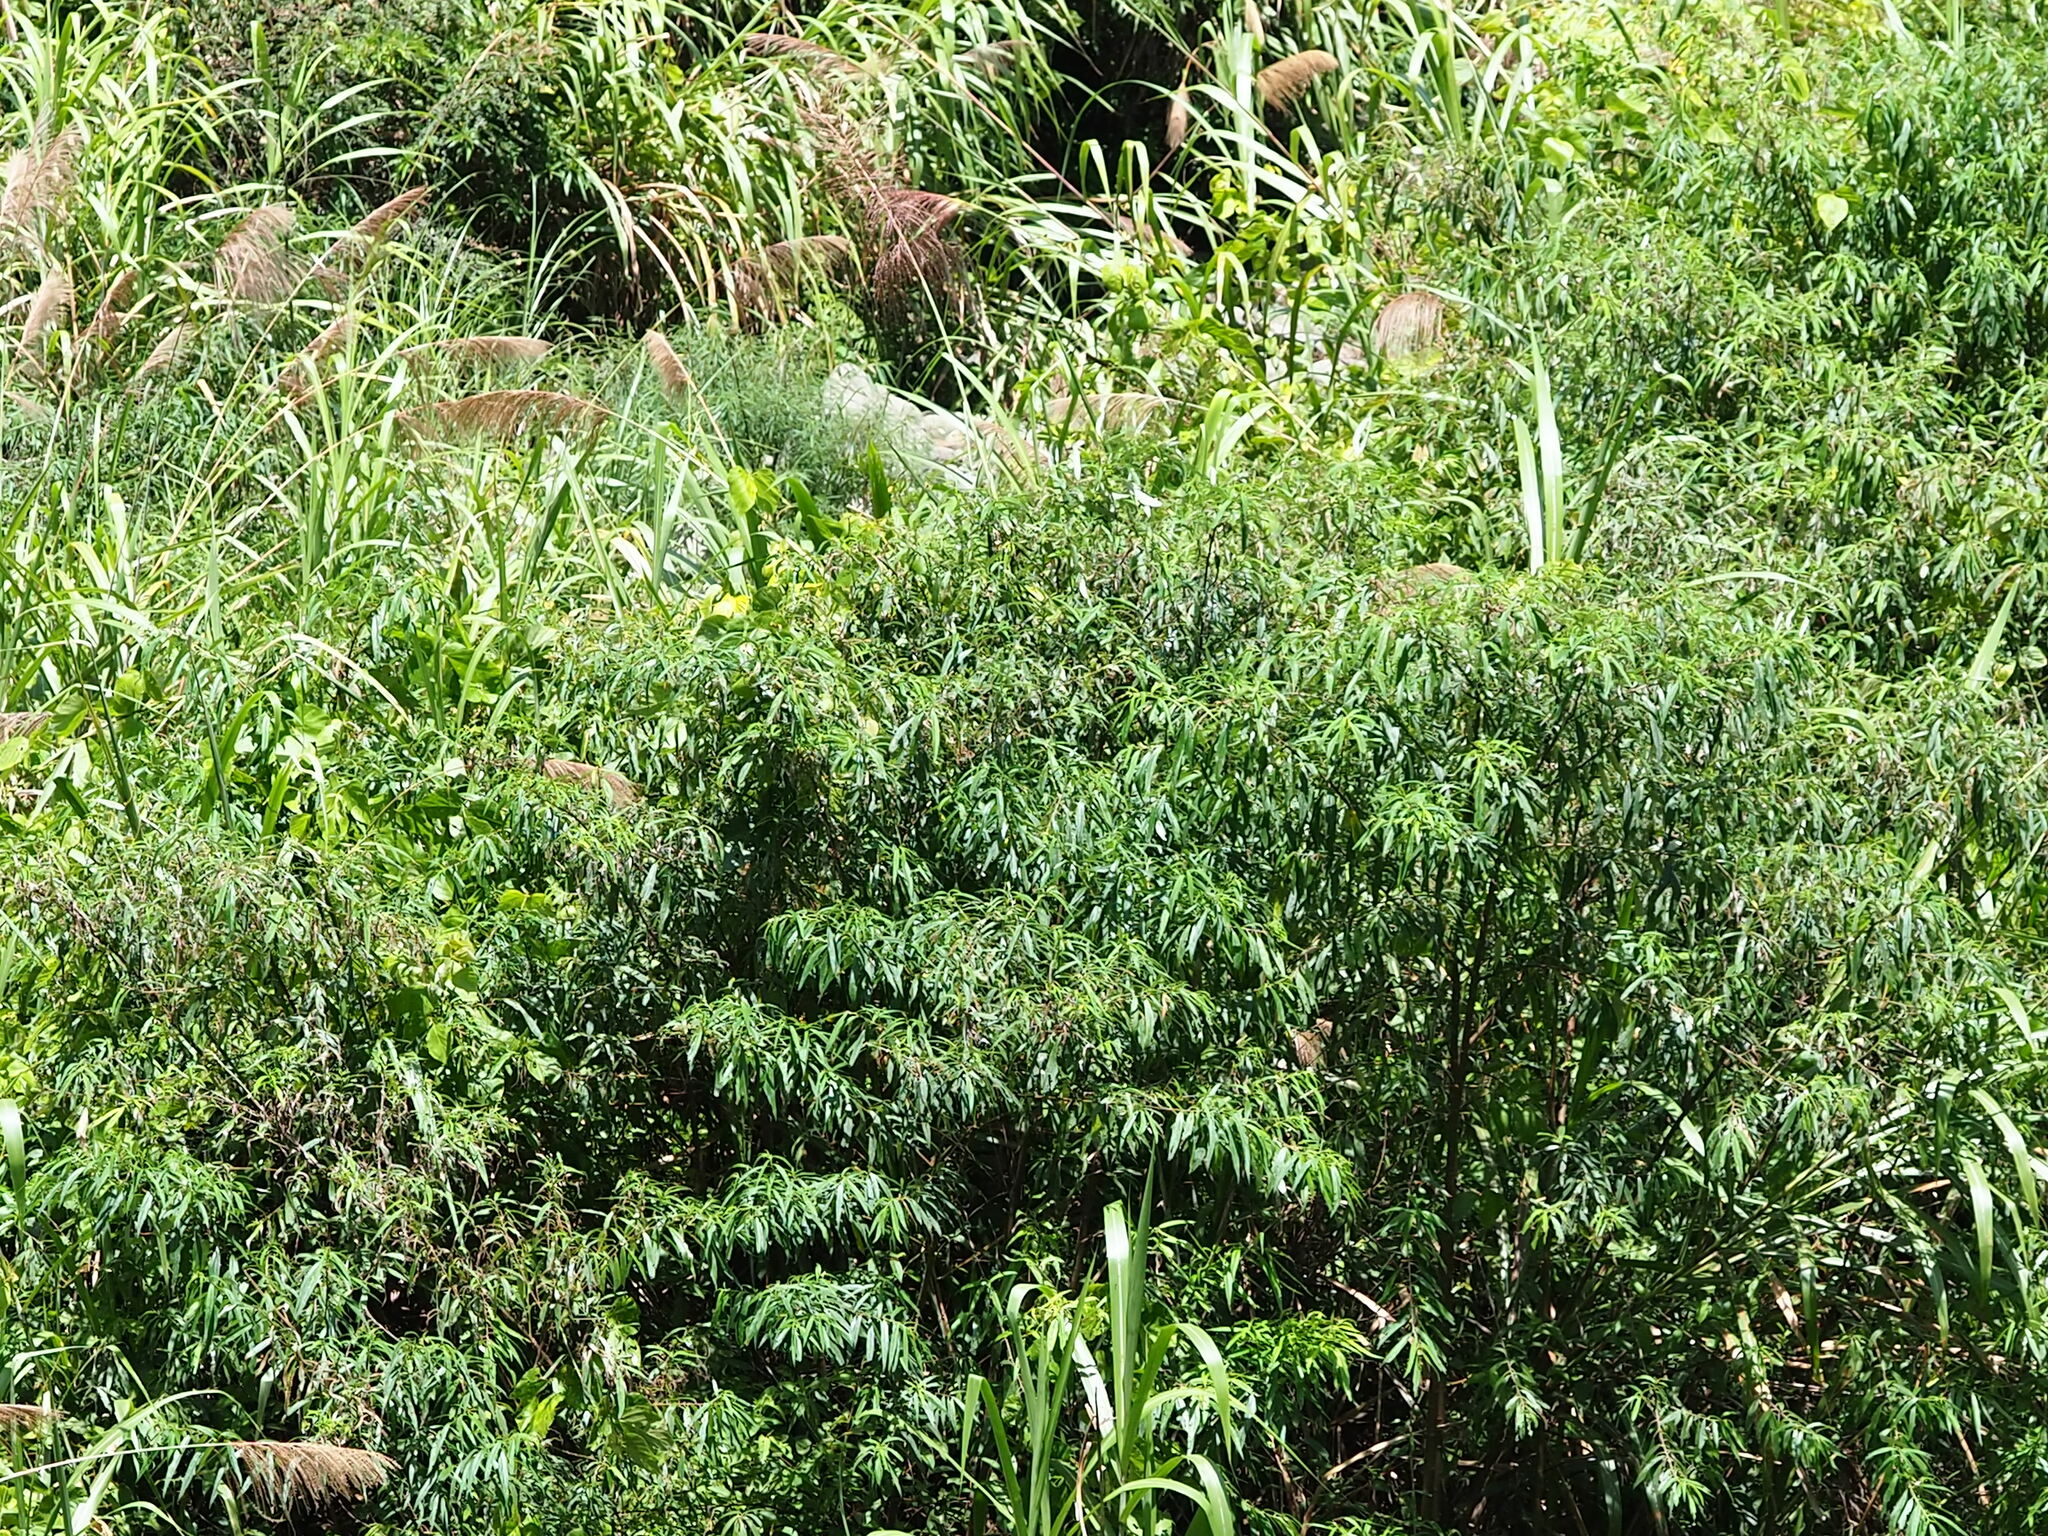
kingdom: Plantae
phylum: Tracheophyta
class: Magnoliopsida
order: Rosales
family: Urticaceae
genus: Debregeasia
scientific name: Debregeasia orientalis
